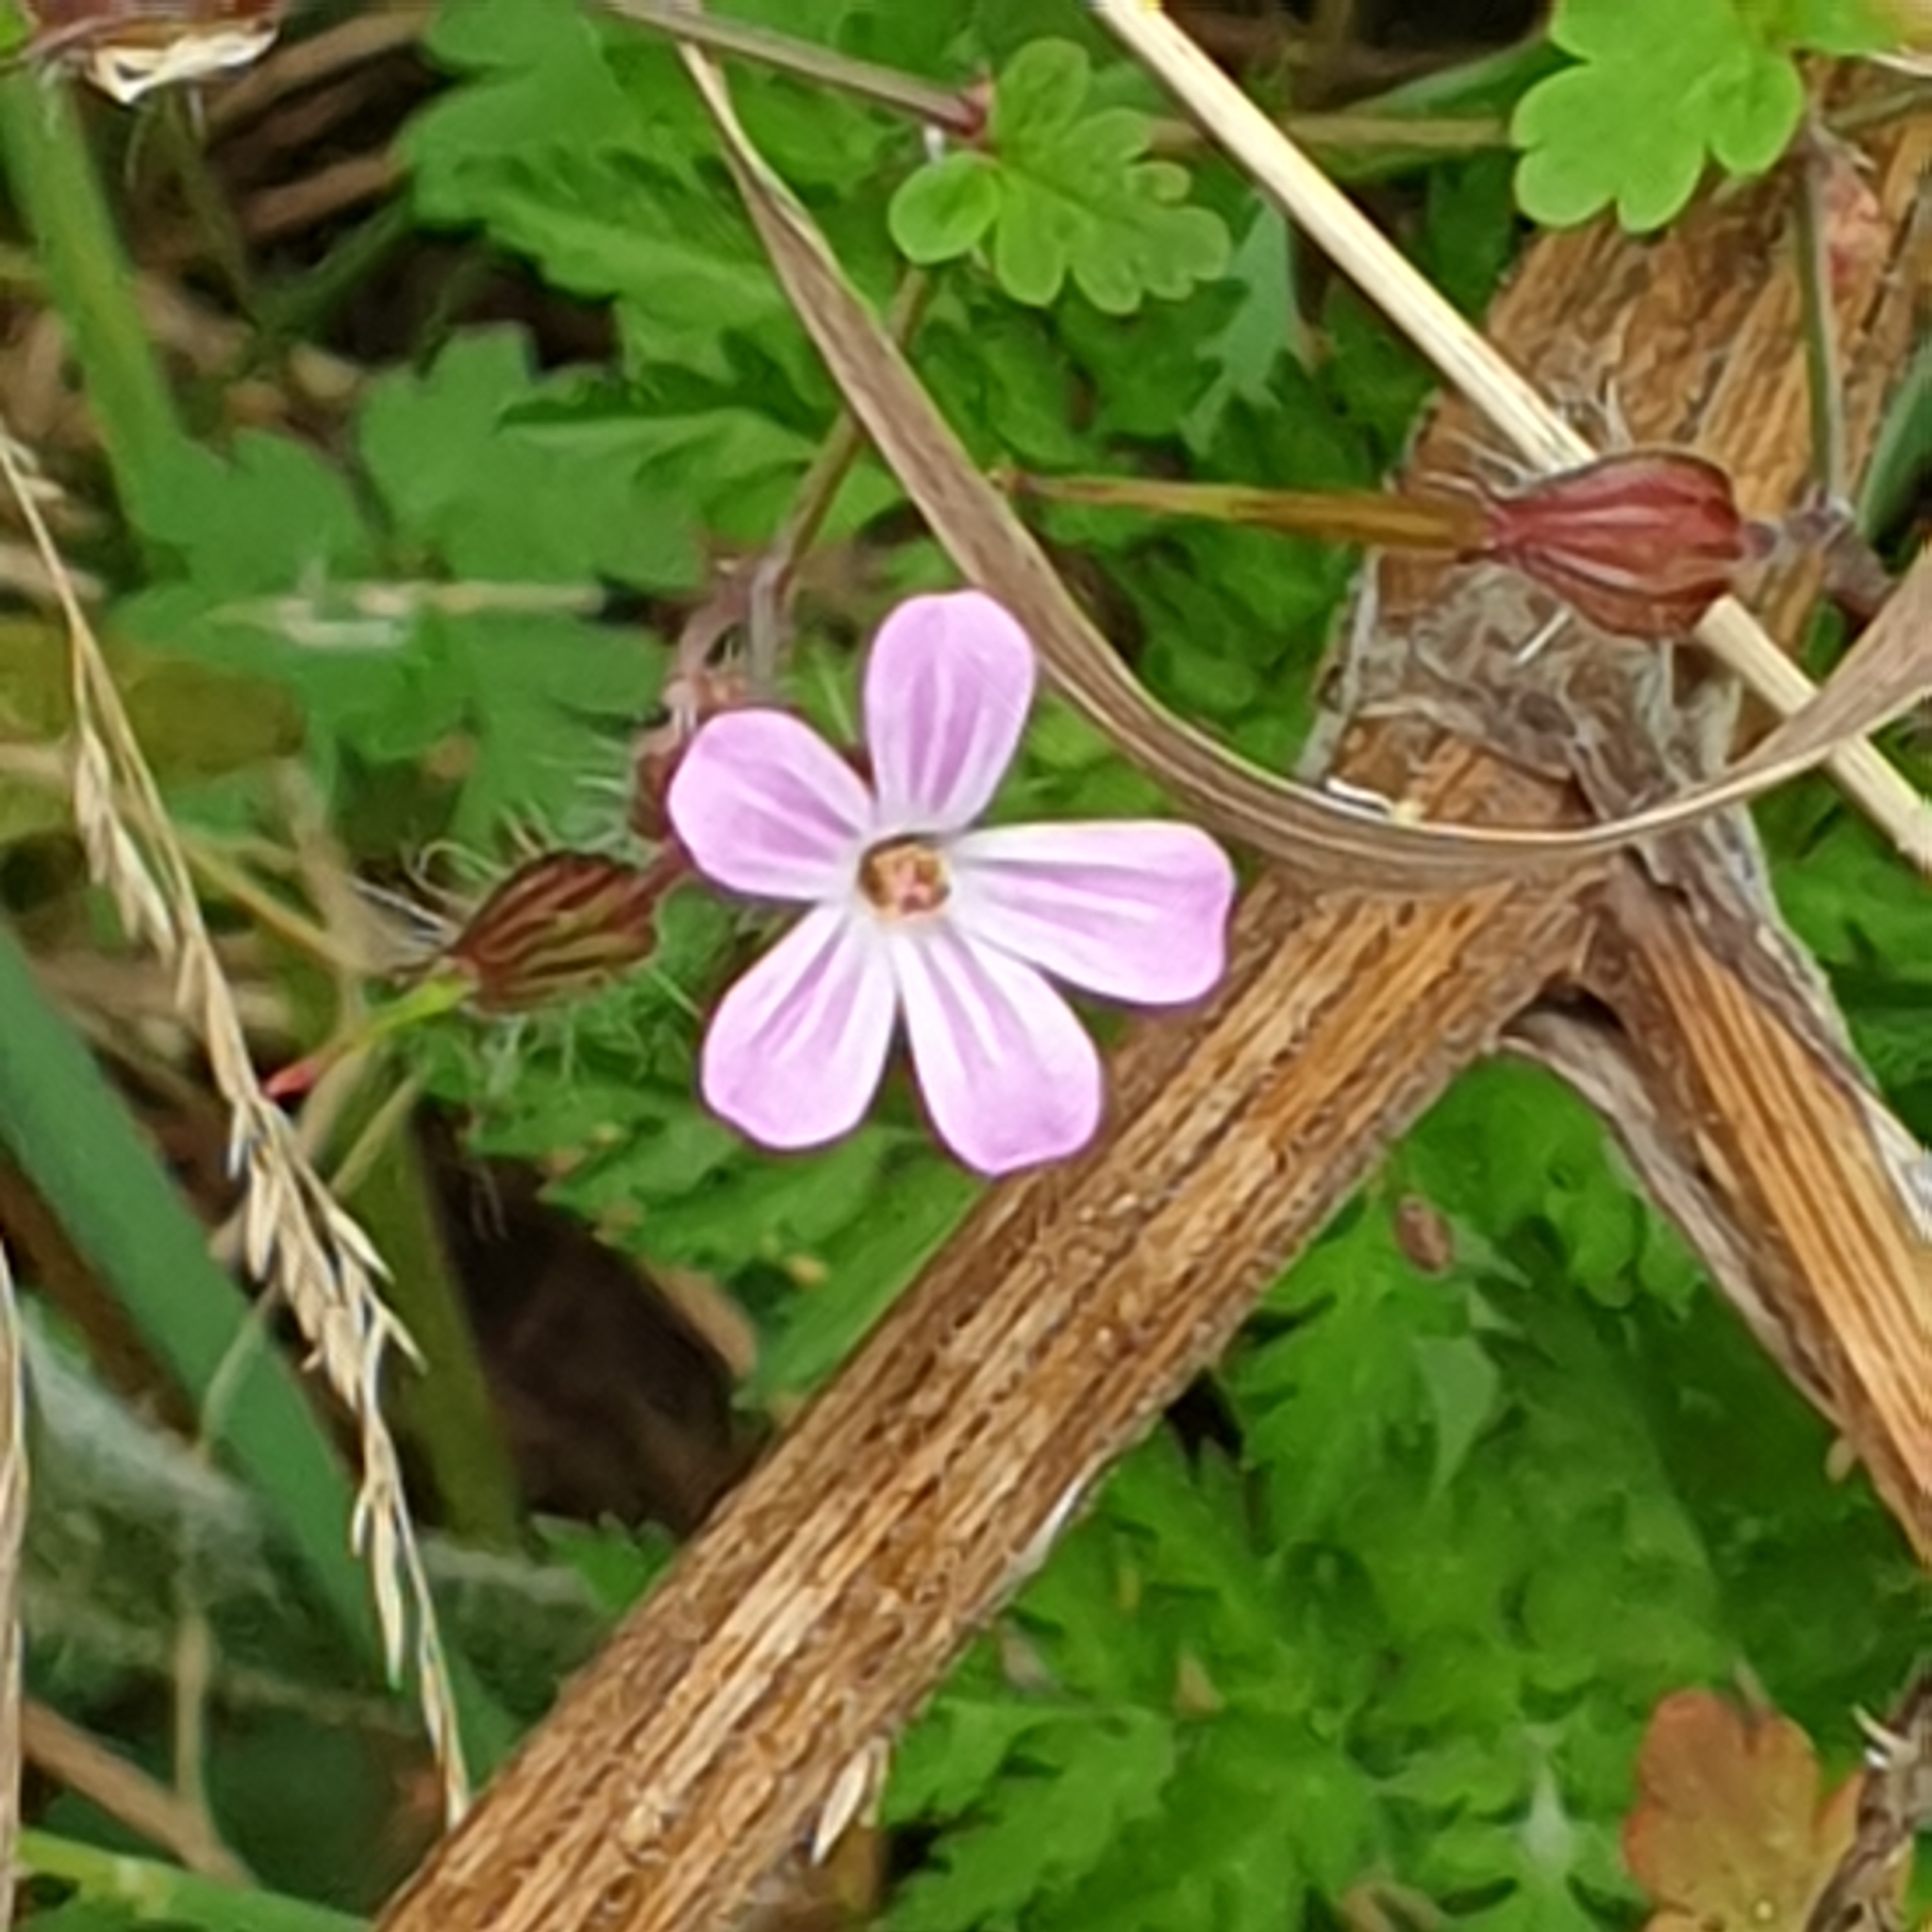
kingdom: Plantae
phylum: Tracheophyta
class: Magnoliopsida
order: Geraniales
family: Geraniaceae
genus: Geranium
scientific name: Geranium robertianum
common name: Herb-robert
